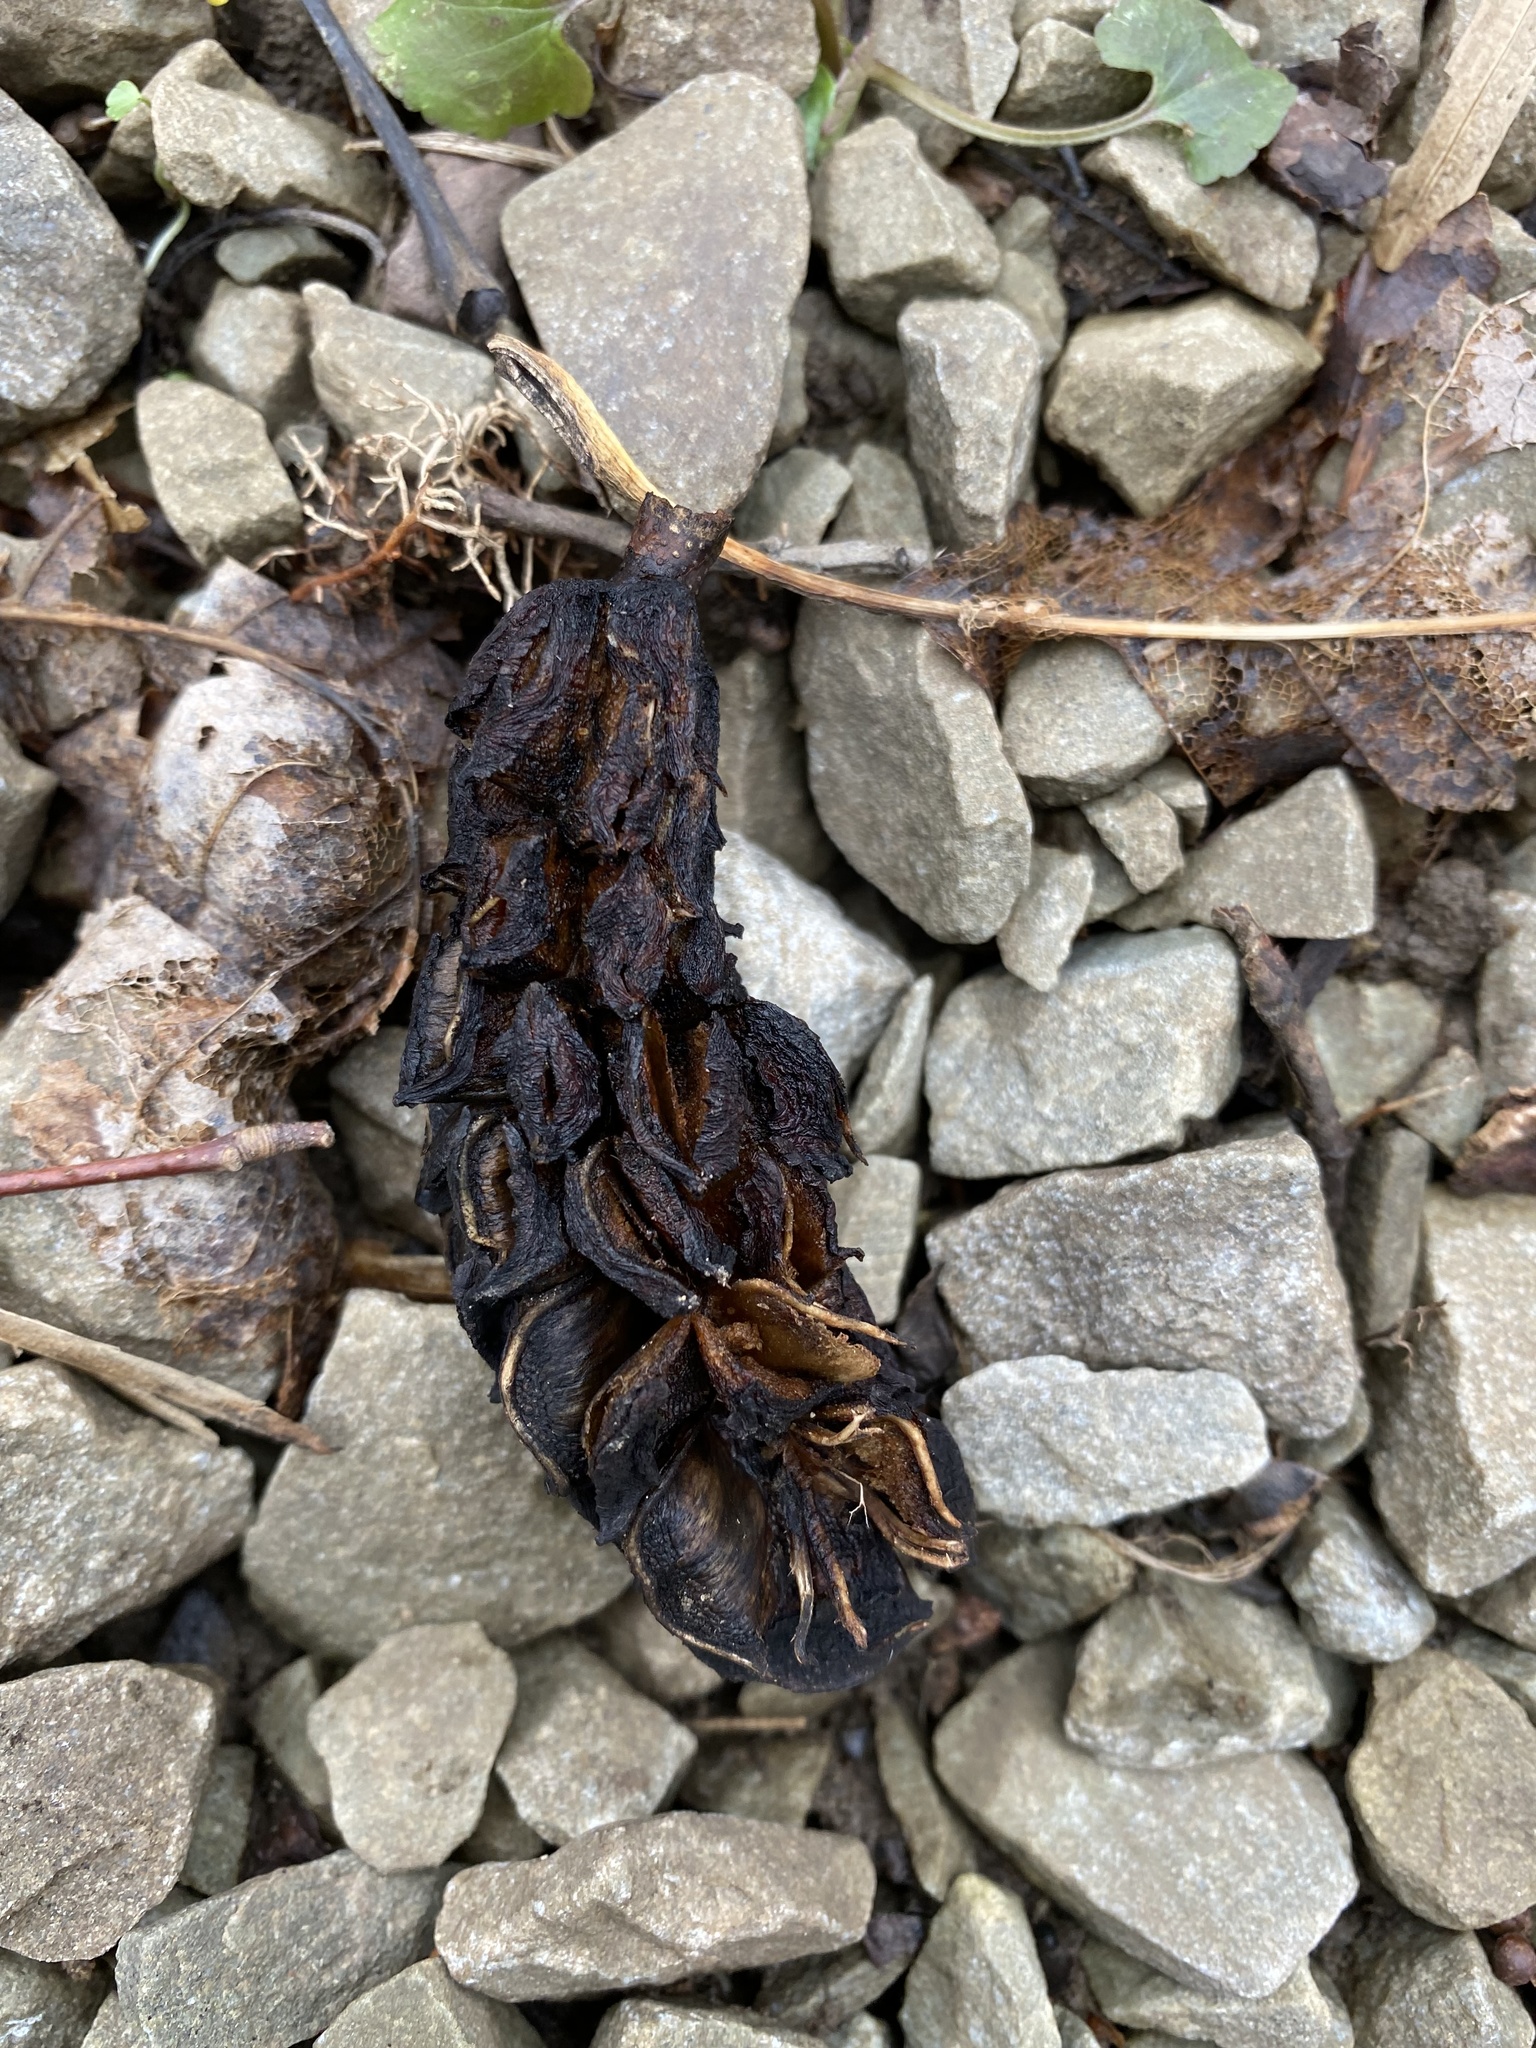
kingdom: Plantae
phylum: Tracheophyta
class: Magnoliopsida
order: Magnoliales
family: Magnoliaceae
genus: Magnolia
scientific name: Magnolia acuminata
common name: Cucumber magnolia
